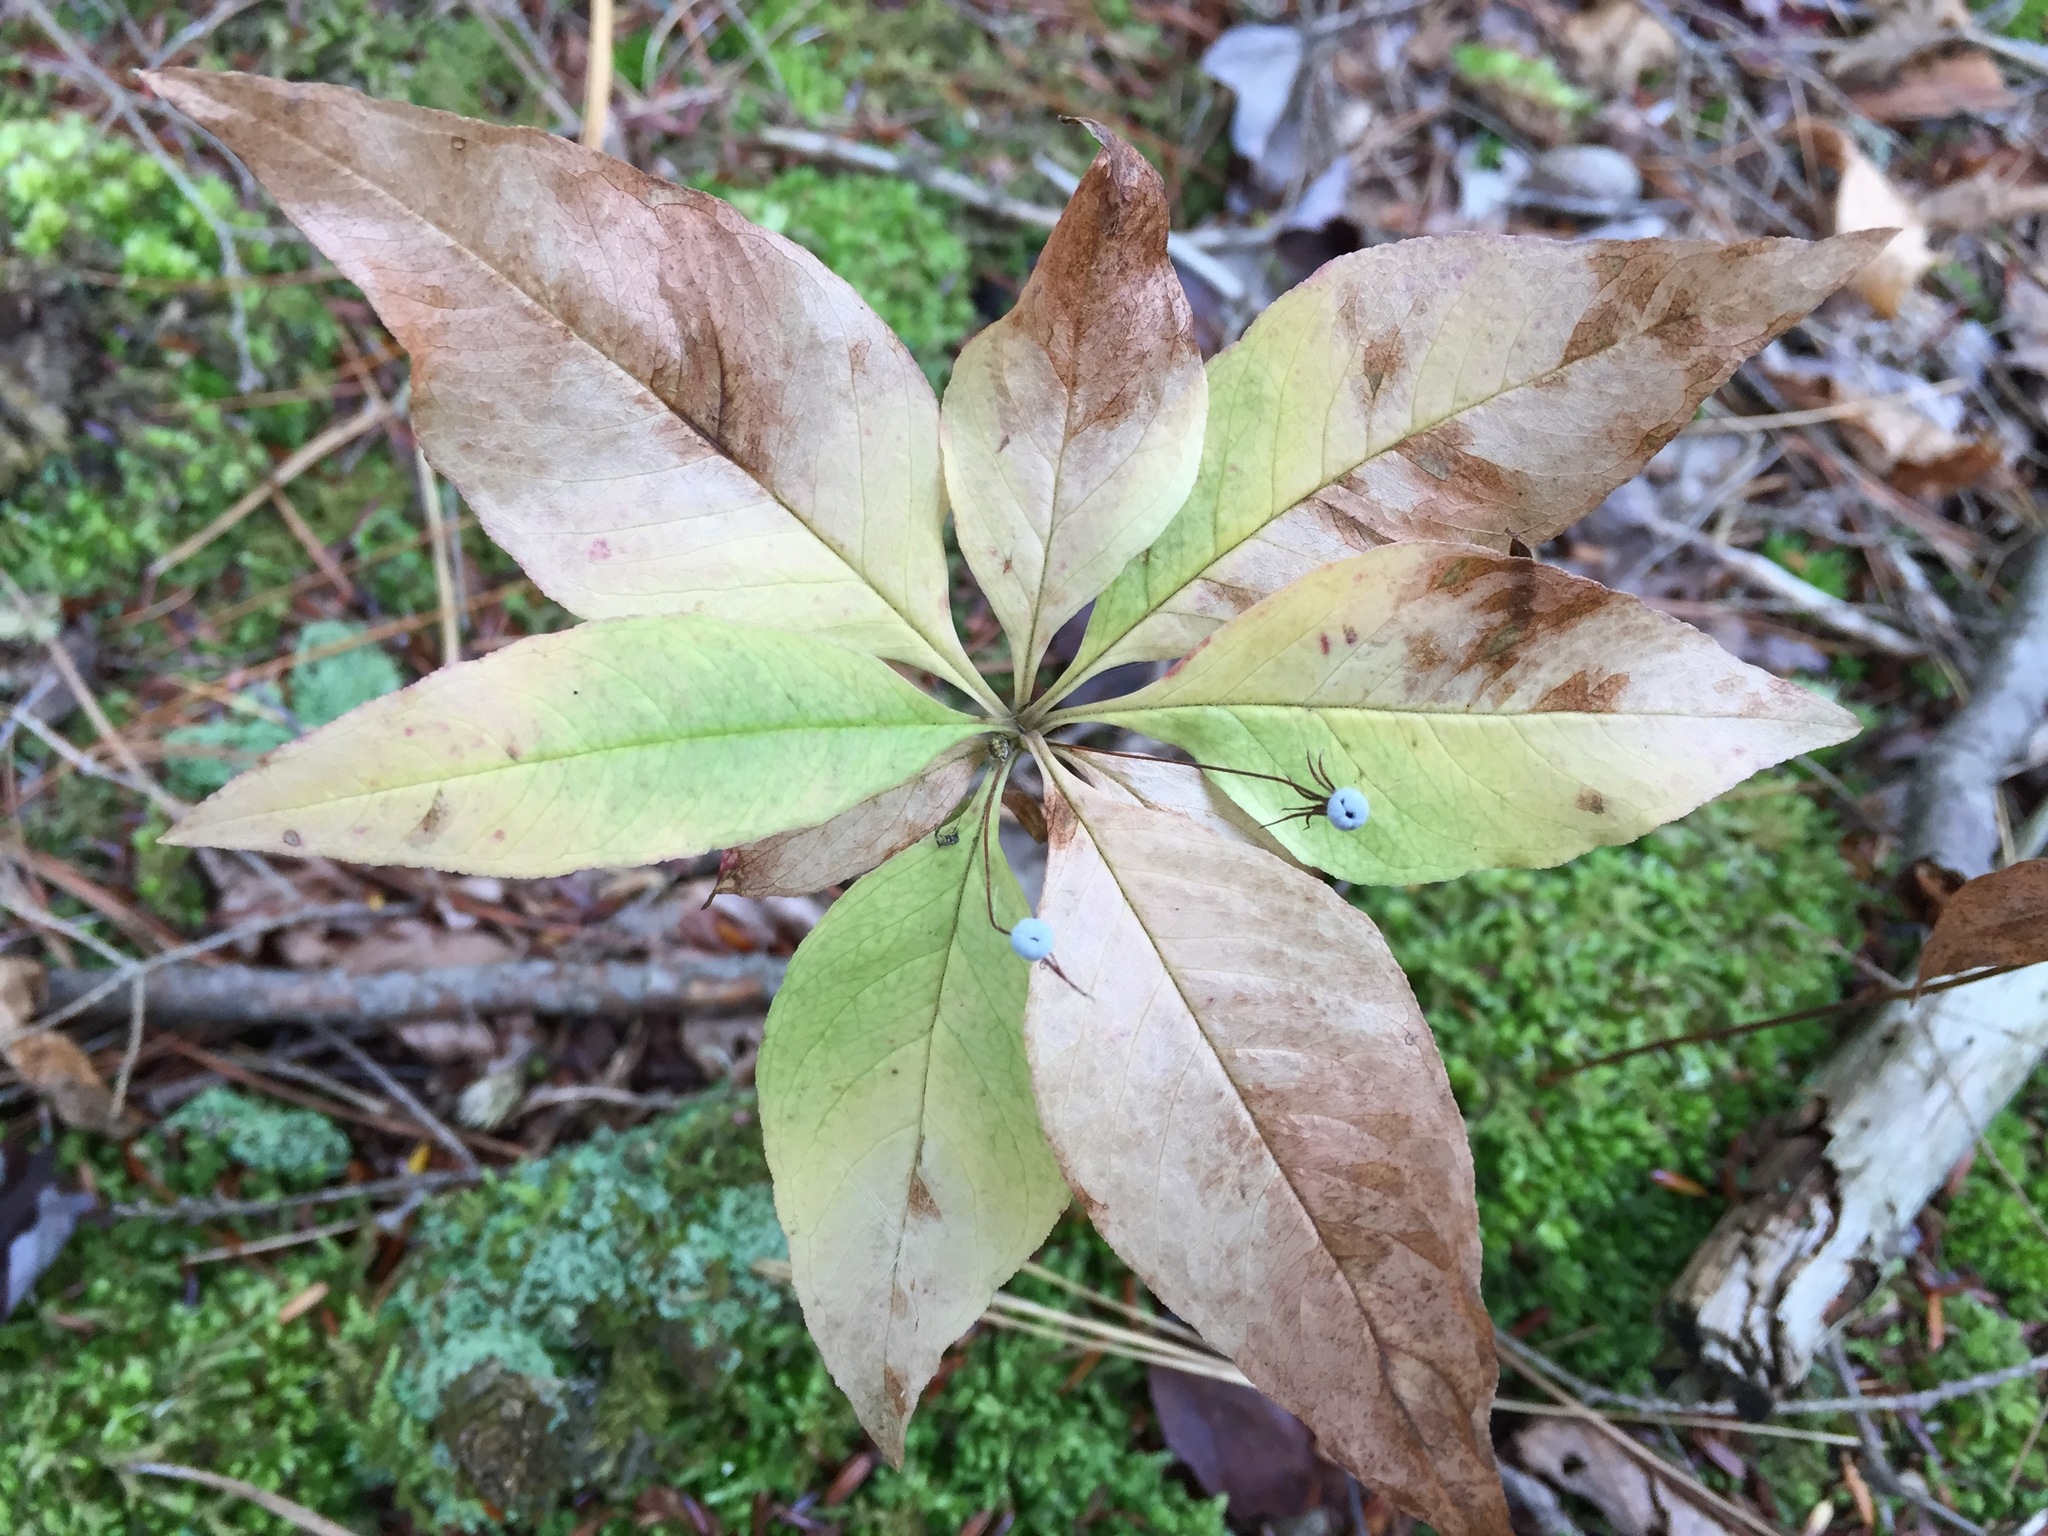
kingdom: Plantae
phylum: Tracheophyta
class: Magnoliopsida
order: Ericales
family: Primulaceae
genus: Lysimachia
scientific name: Lysimachia borealis
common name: American starflower
